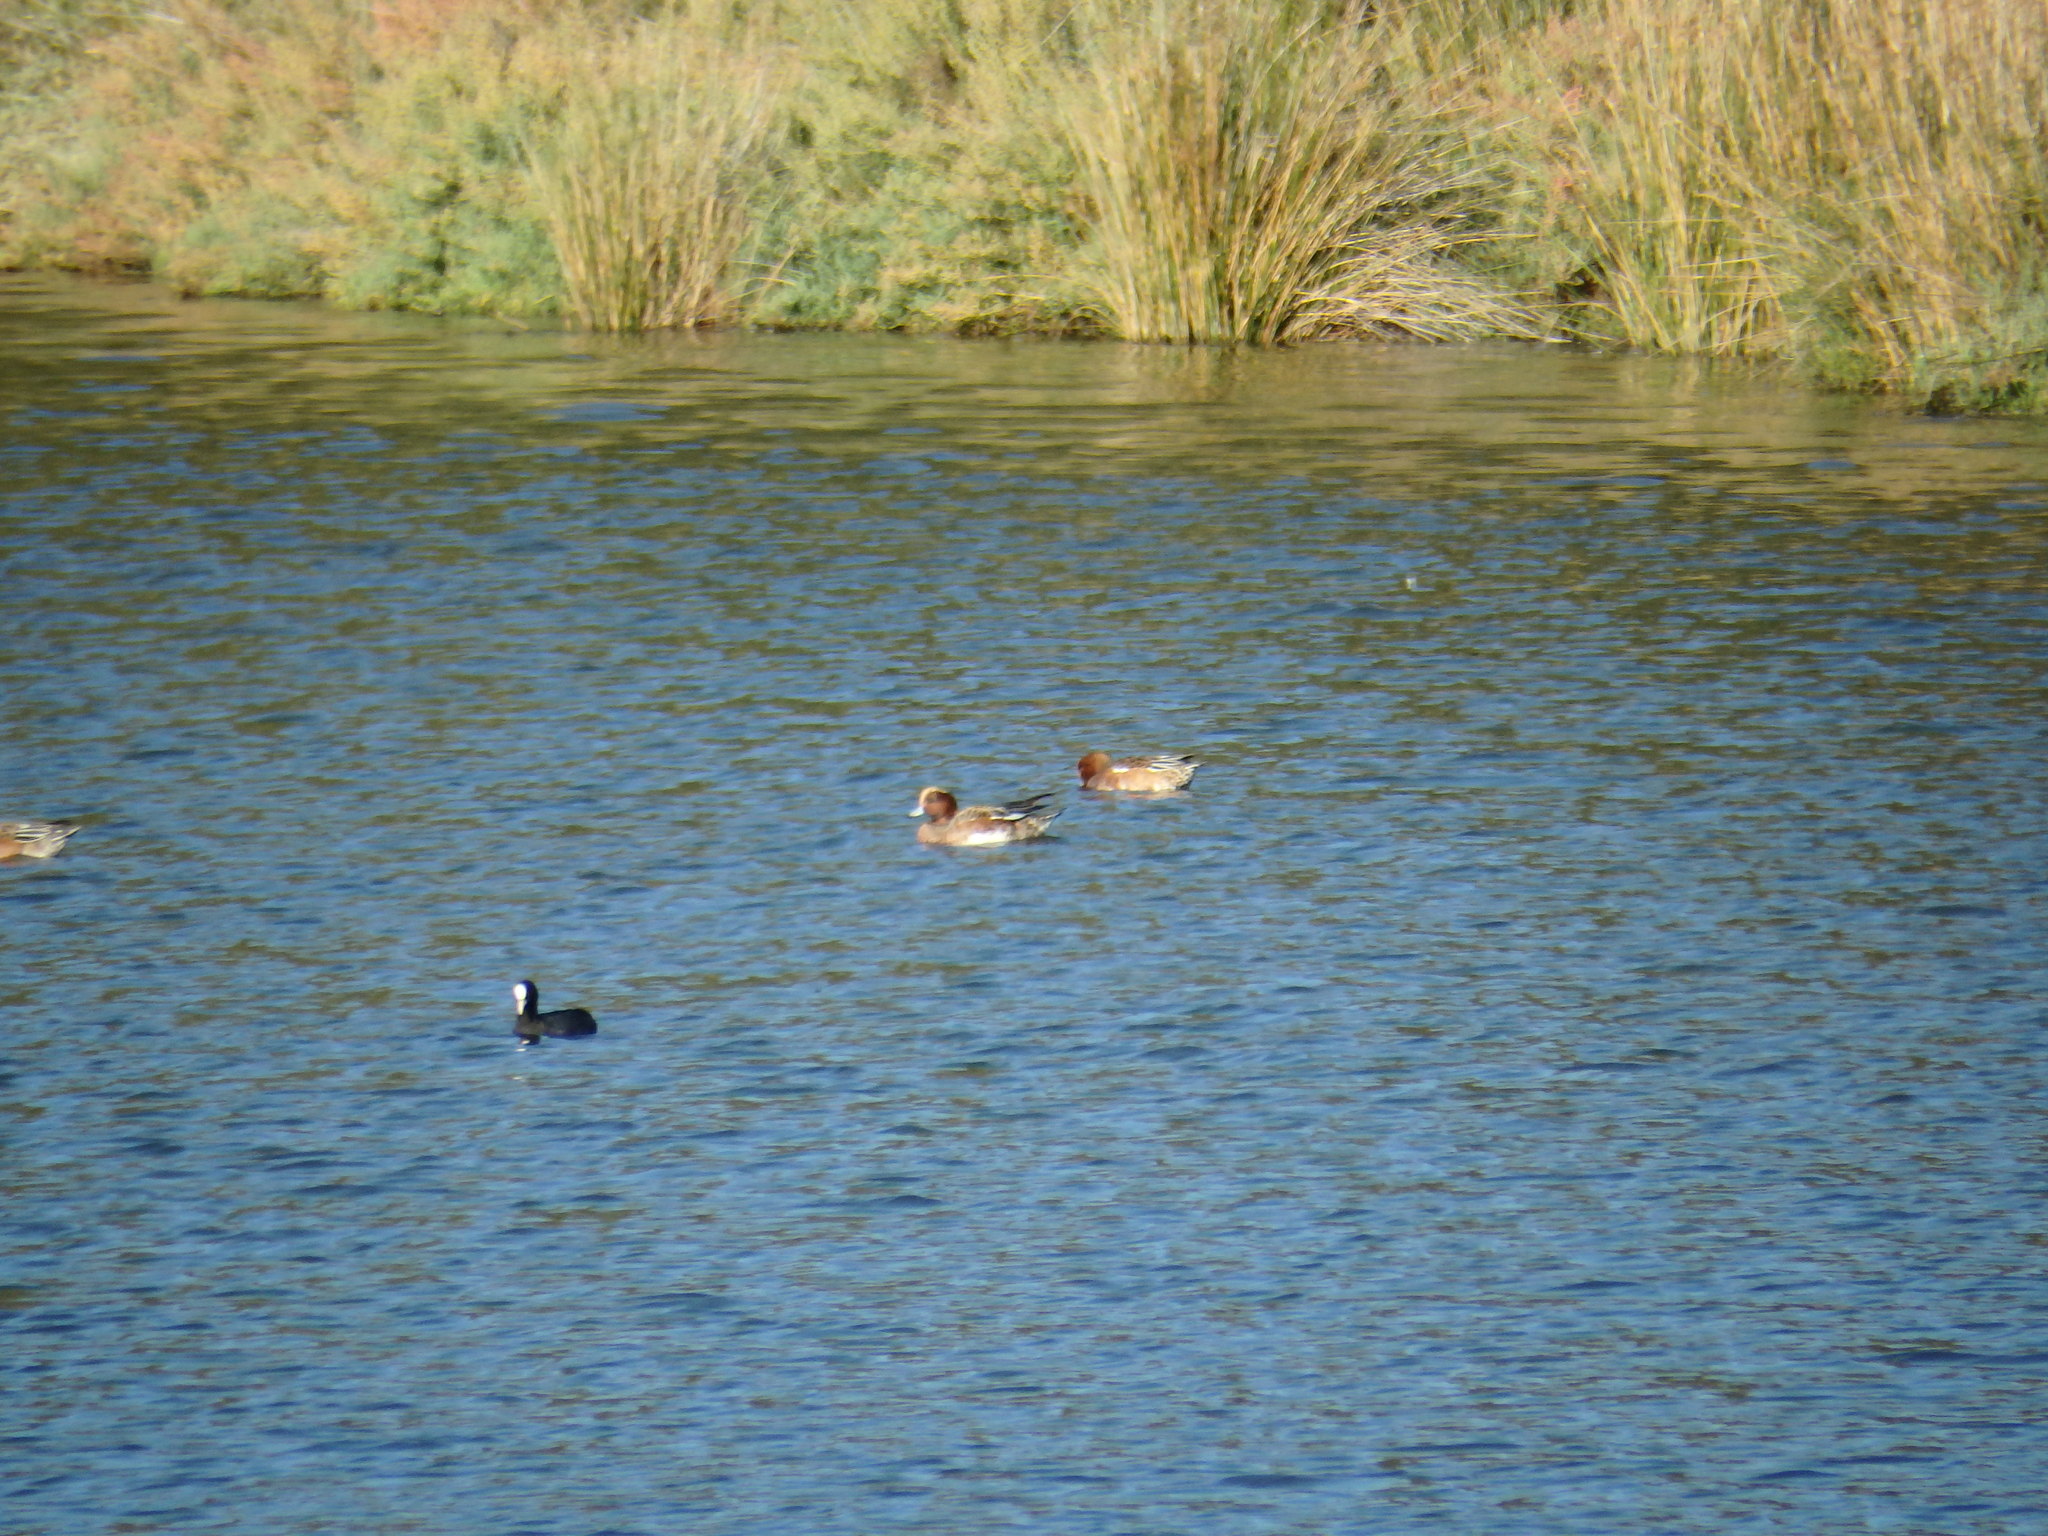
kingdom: Animalia
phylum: Chordata
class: Aves
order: Anseriformes
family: Anatidae
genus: Mareca
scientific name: Mareca penelope
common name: Eurasian wigeon
